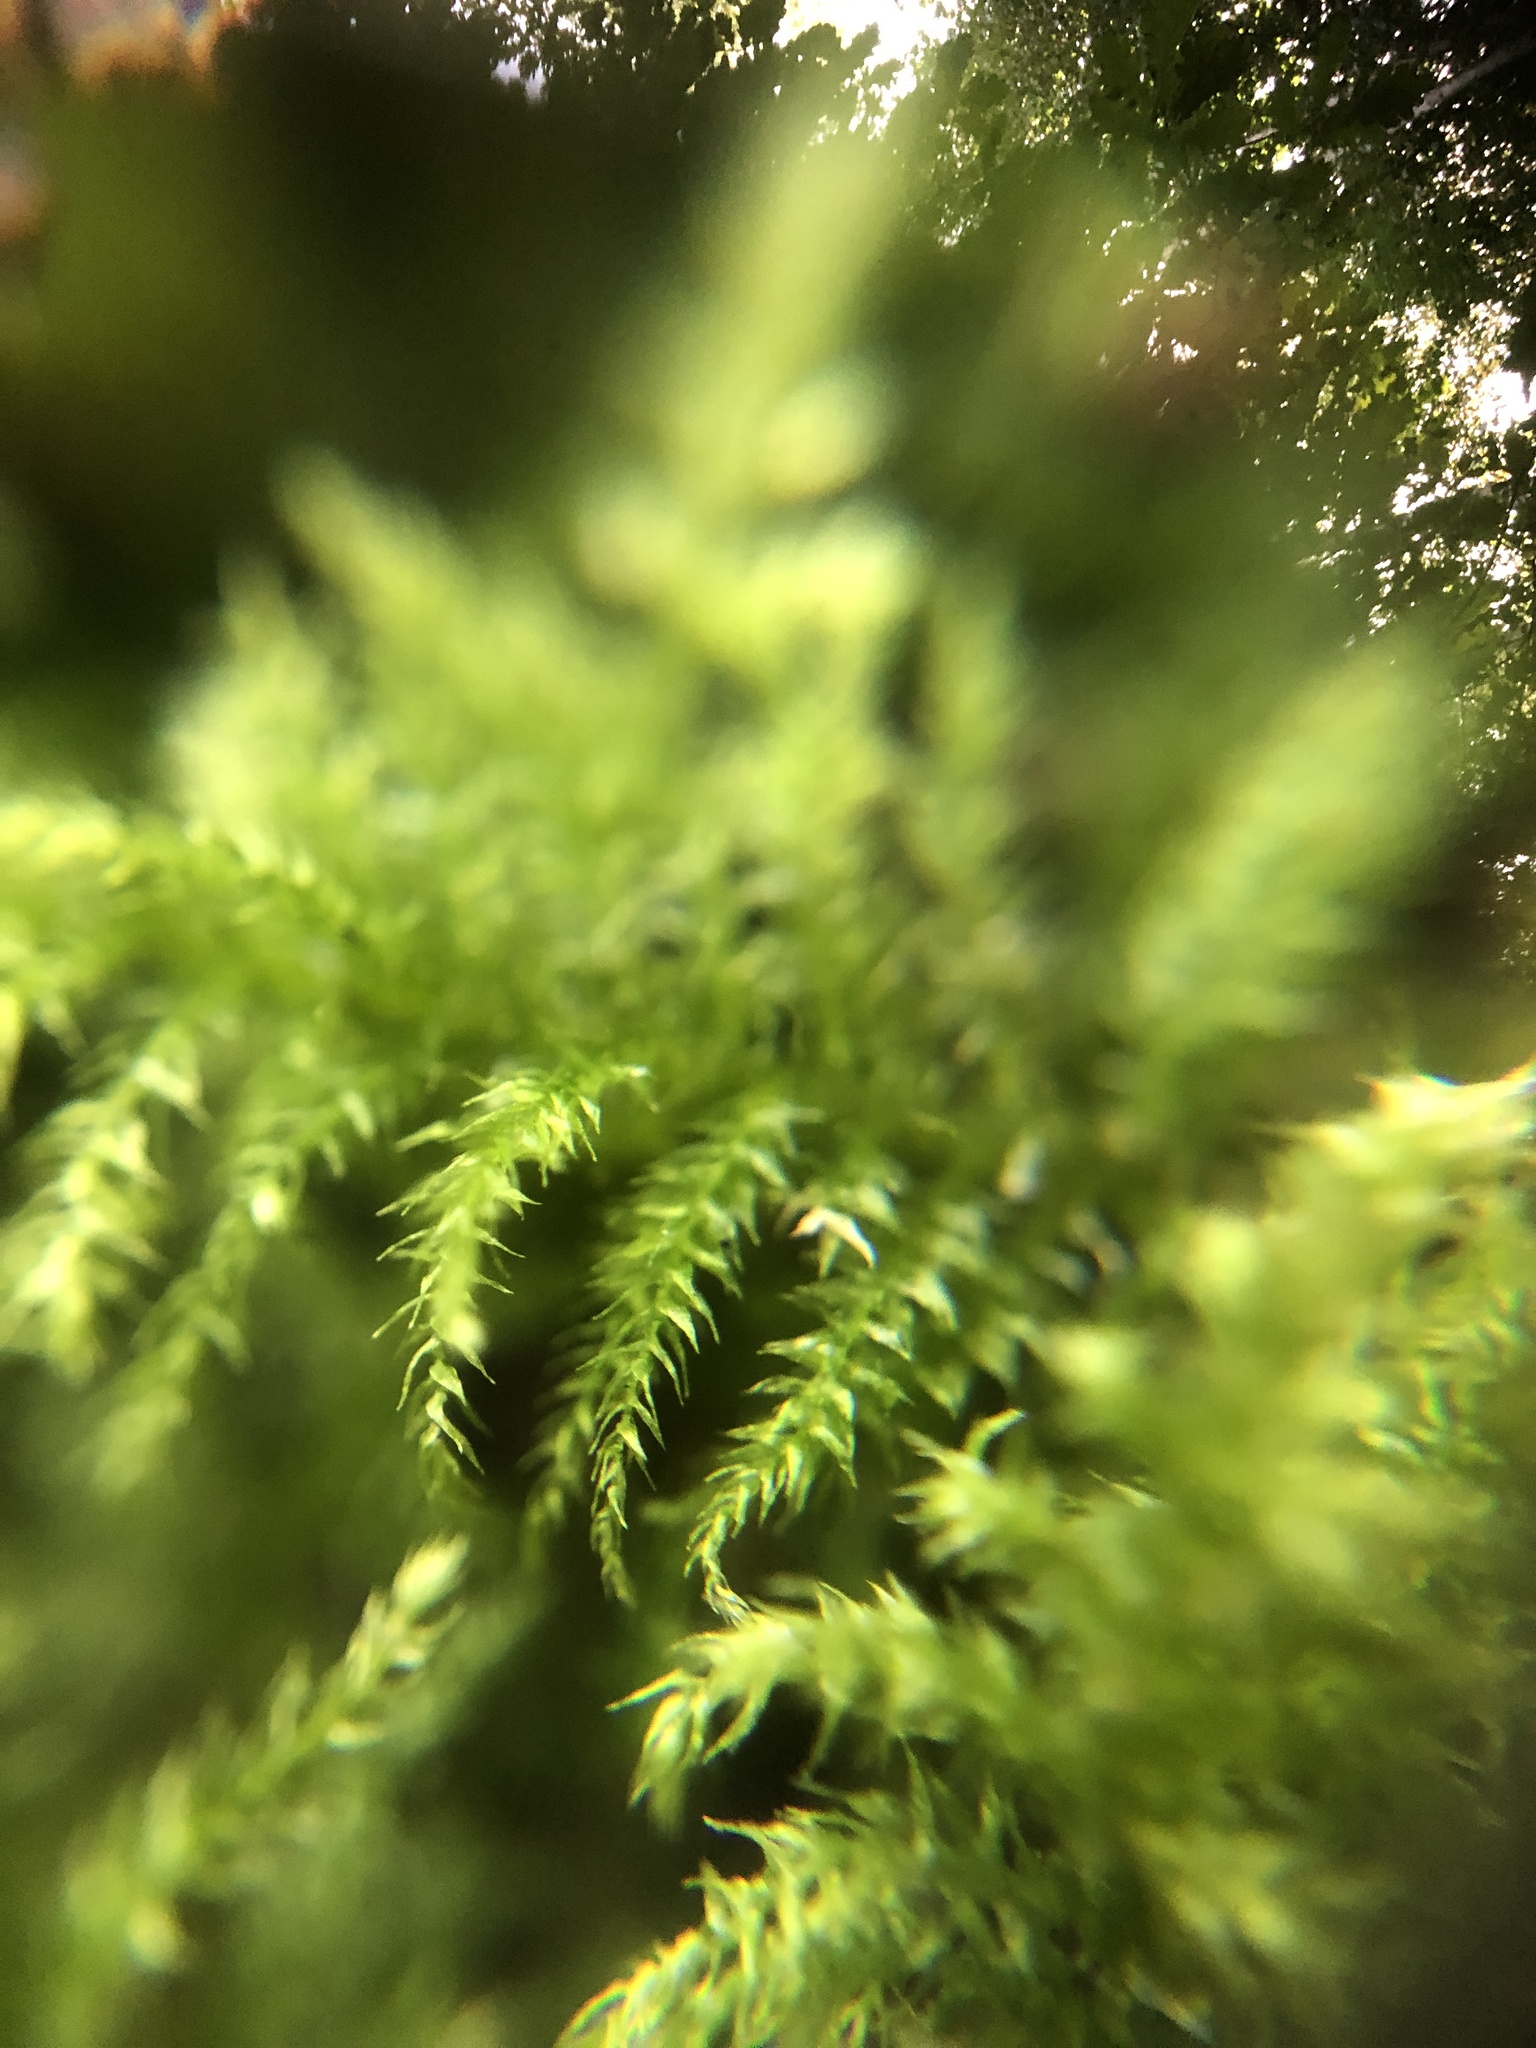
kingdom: Plantae
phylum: Bryophyta
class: Bryopsida
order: Hypnales
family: Brachytheciaceae
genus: Kindbergia
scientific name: Kindbergia praelonga
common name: Slender beaked moss
